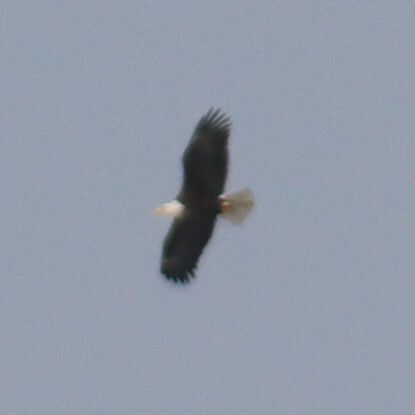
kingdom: Animalia
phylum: Chordata
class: Aves
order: Accipitriformes
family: Accipitridae
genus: Haliaeetus
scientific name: Haliaeetus leucocephalus
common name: Bald eagle
